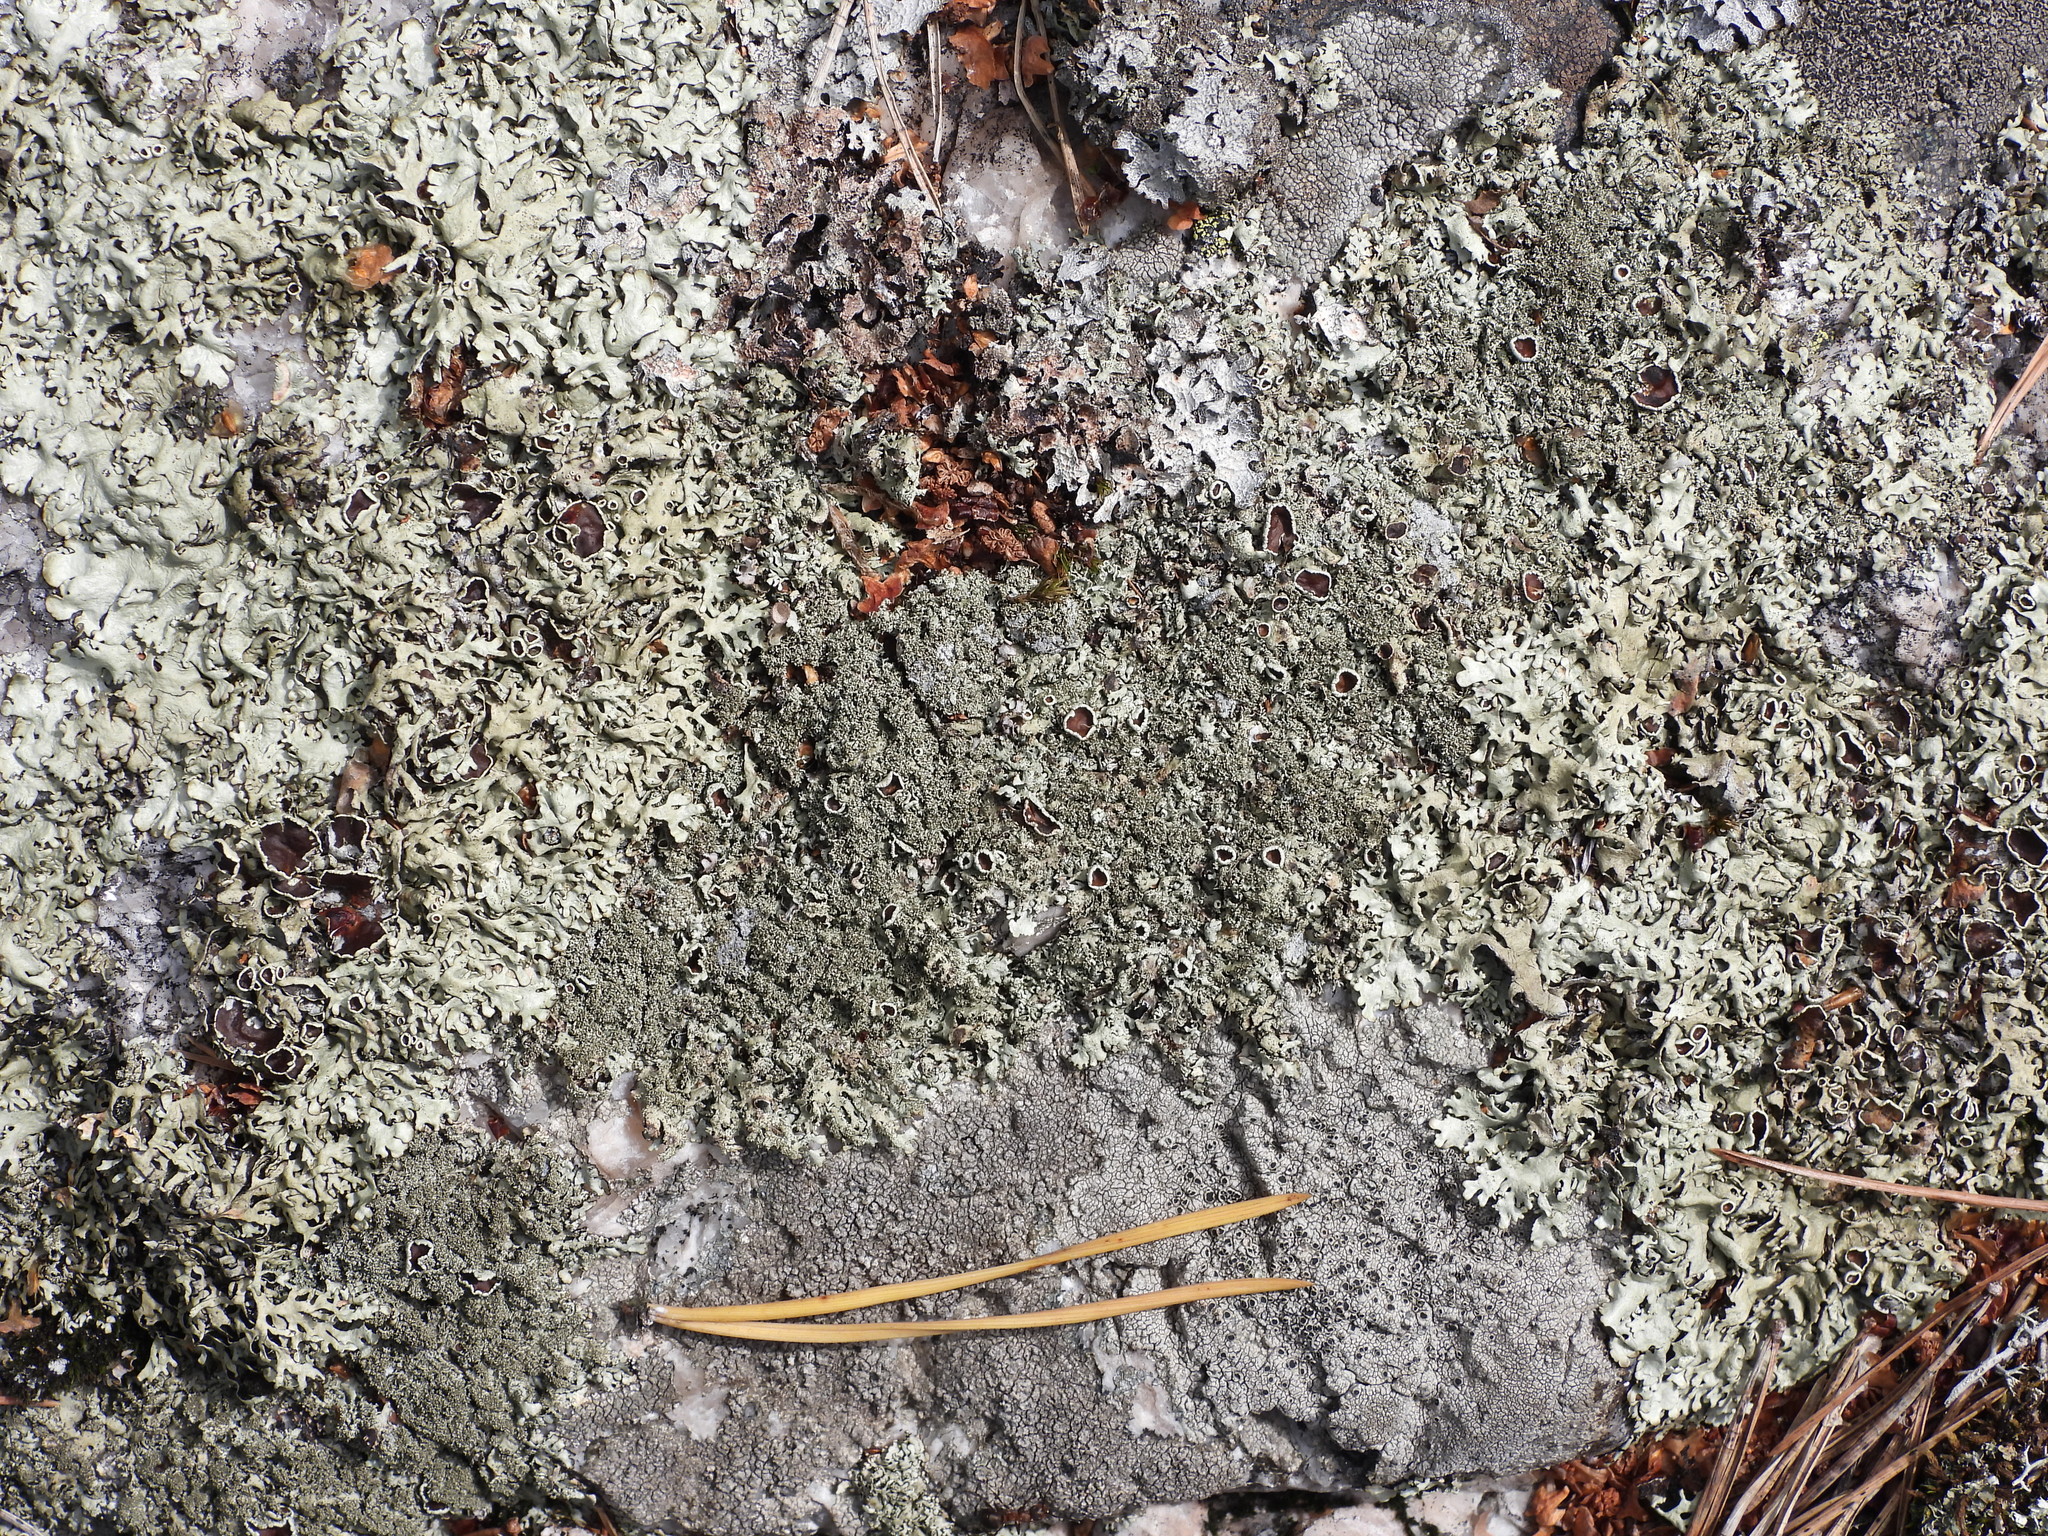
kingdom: Fungi
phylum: Ascomycota
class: Lecanoromycetes
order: Lecanorales
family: Parmeliaceae
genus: Xanthoparmelia
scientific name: Xanthoparmelia stenophylla
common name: Shingled rock shield
